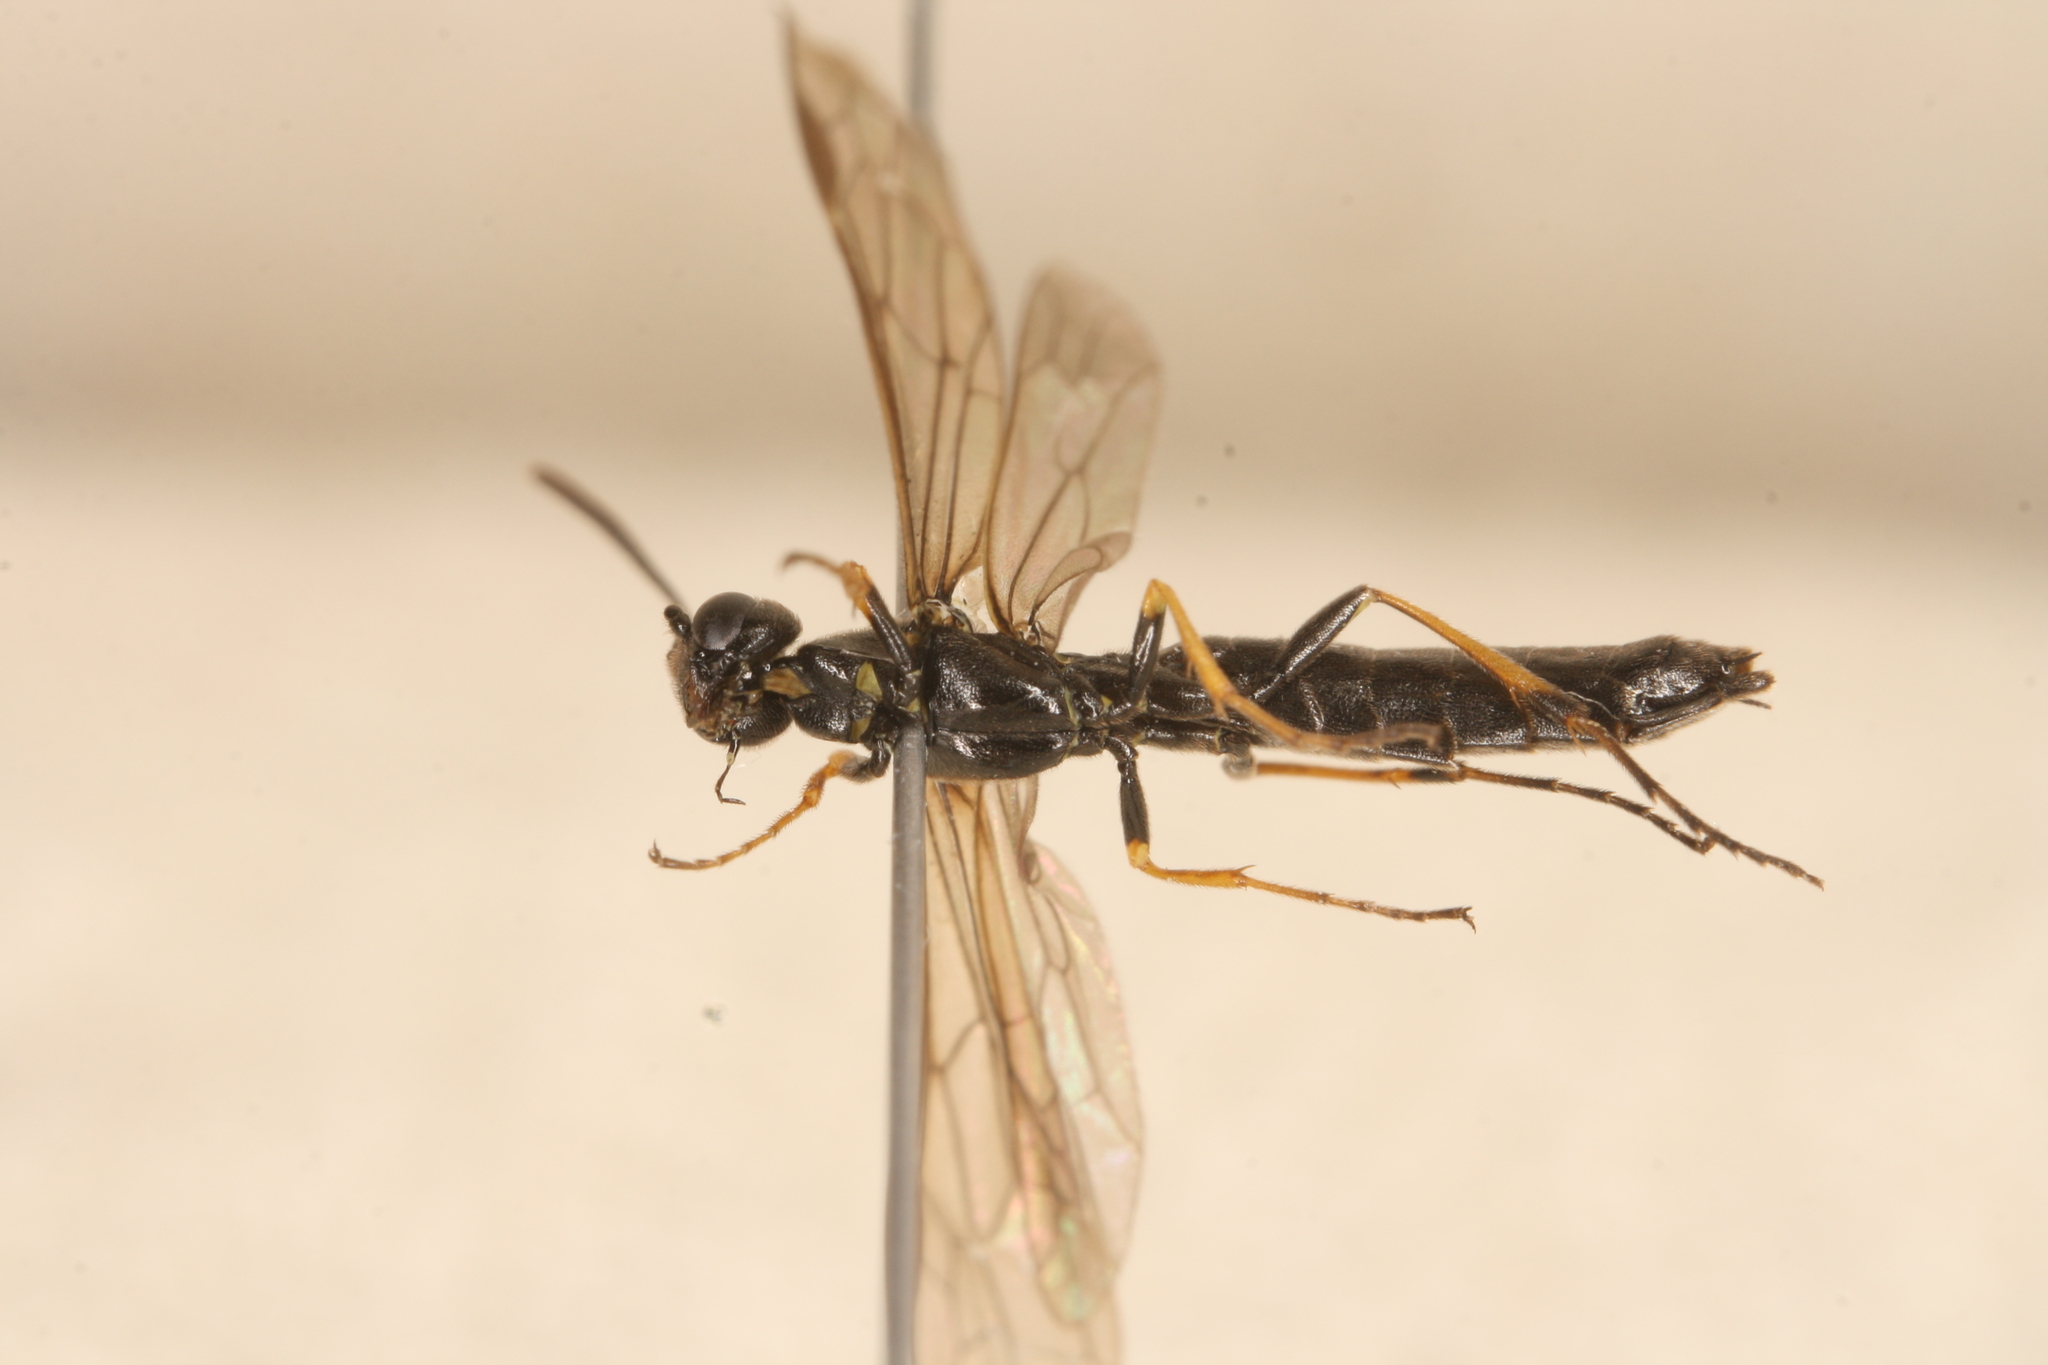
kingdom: Animalia
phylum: Arthropoda
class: Insecta
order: Hymenoptera
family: Cephidae
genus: Calameuta
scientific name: Calameuta pallipes
